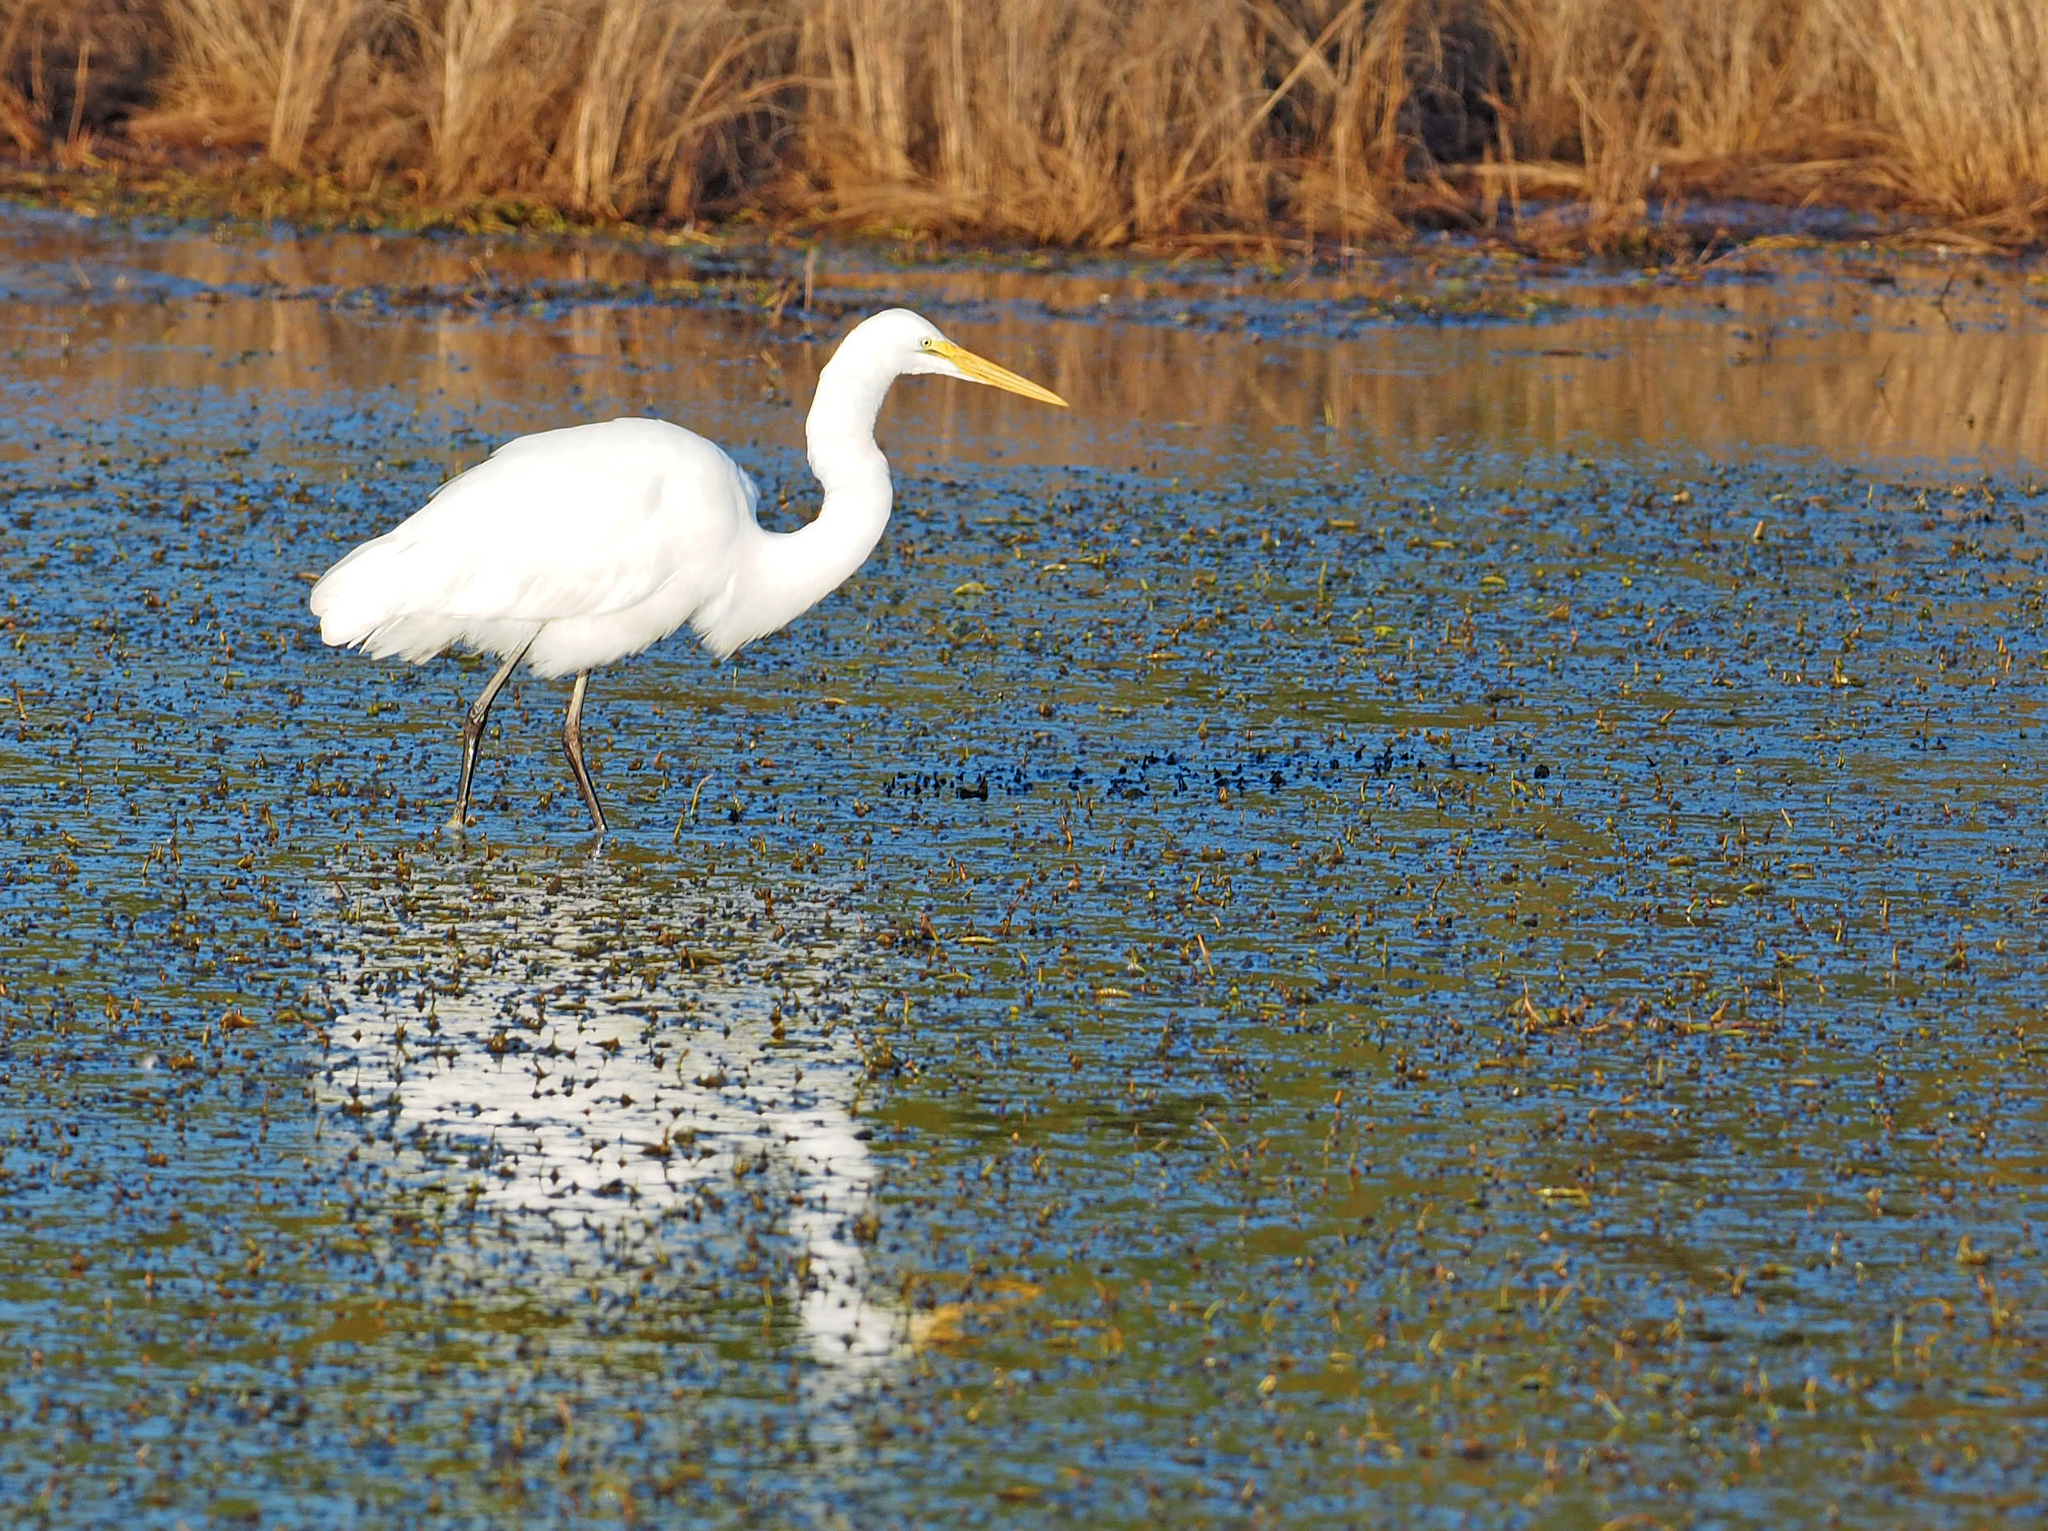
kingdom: Animalia
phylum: Chordata
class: Aves
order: Pelecaniformes
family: Ardeidae
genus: Ardea
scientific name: Ardea alba
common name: Great egret
